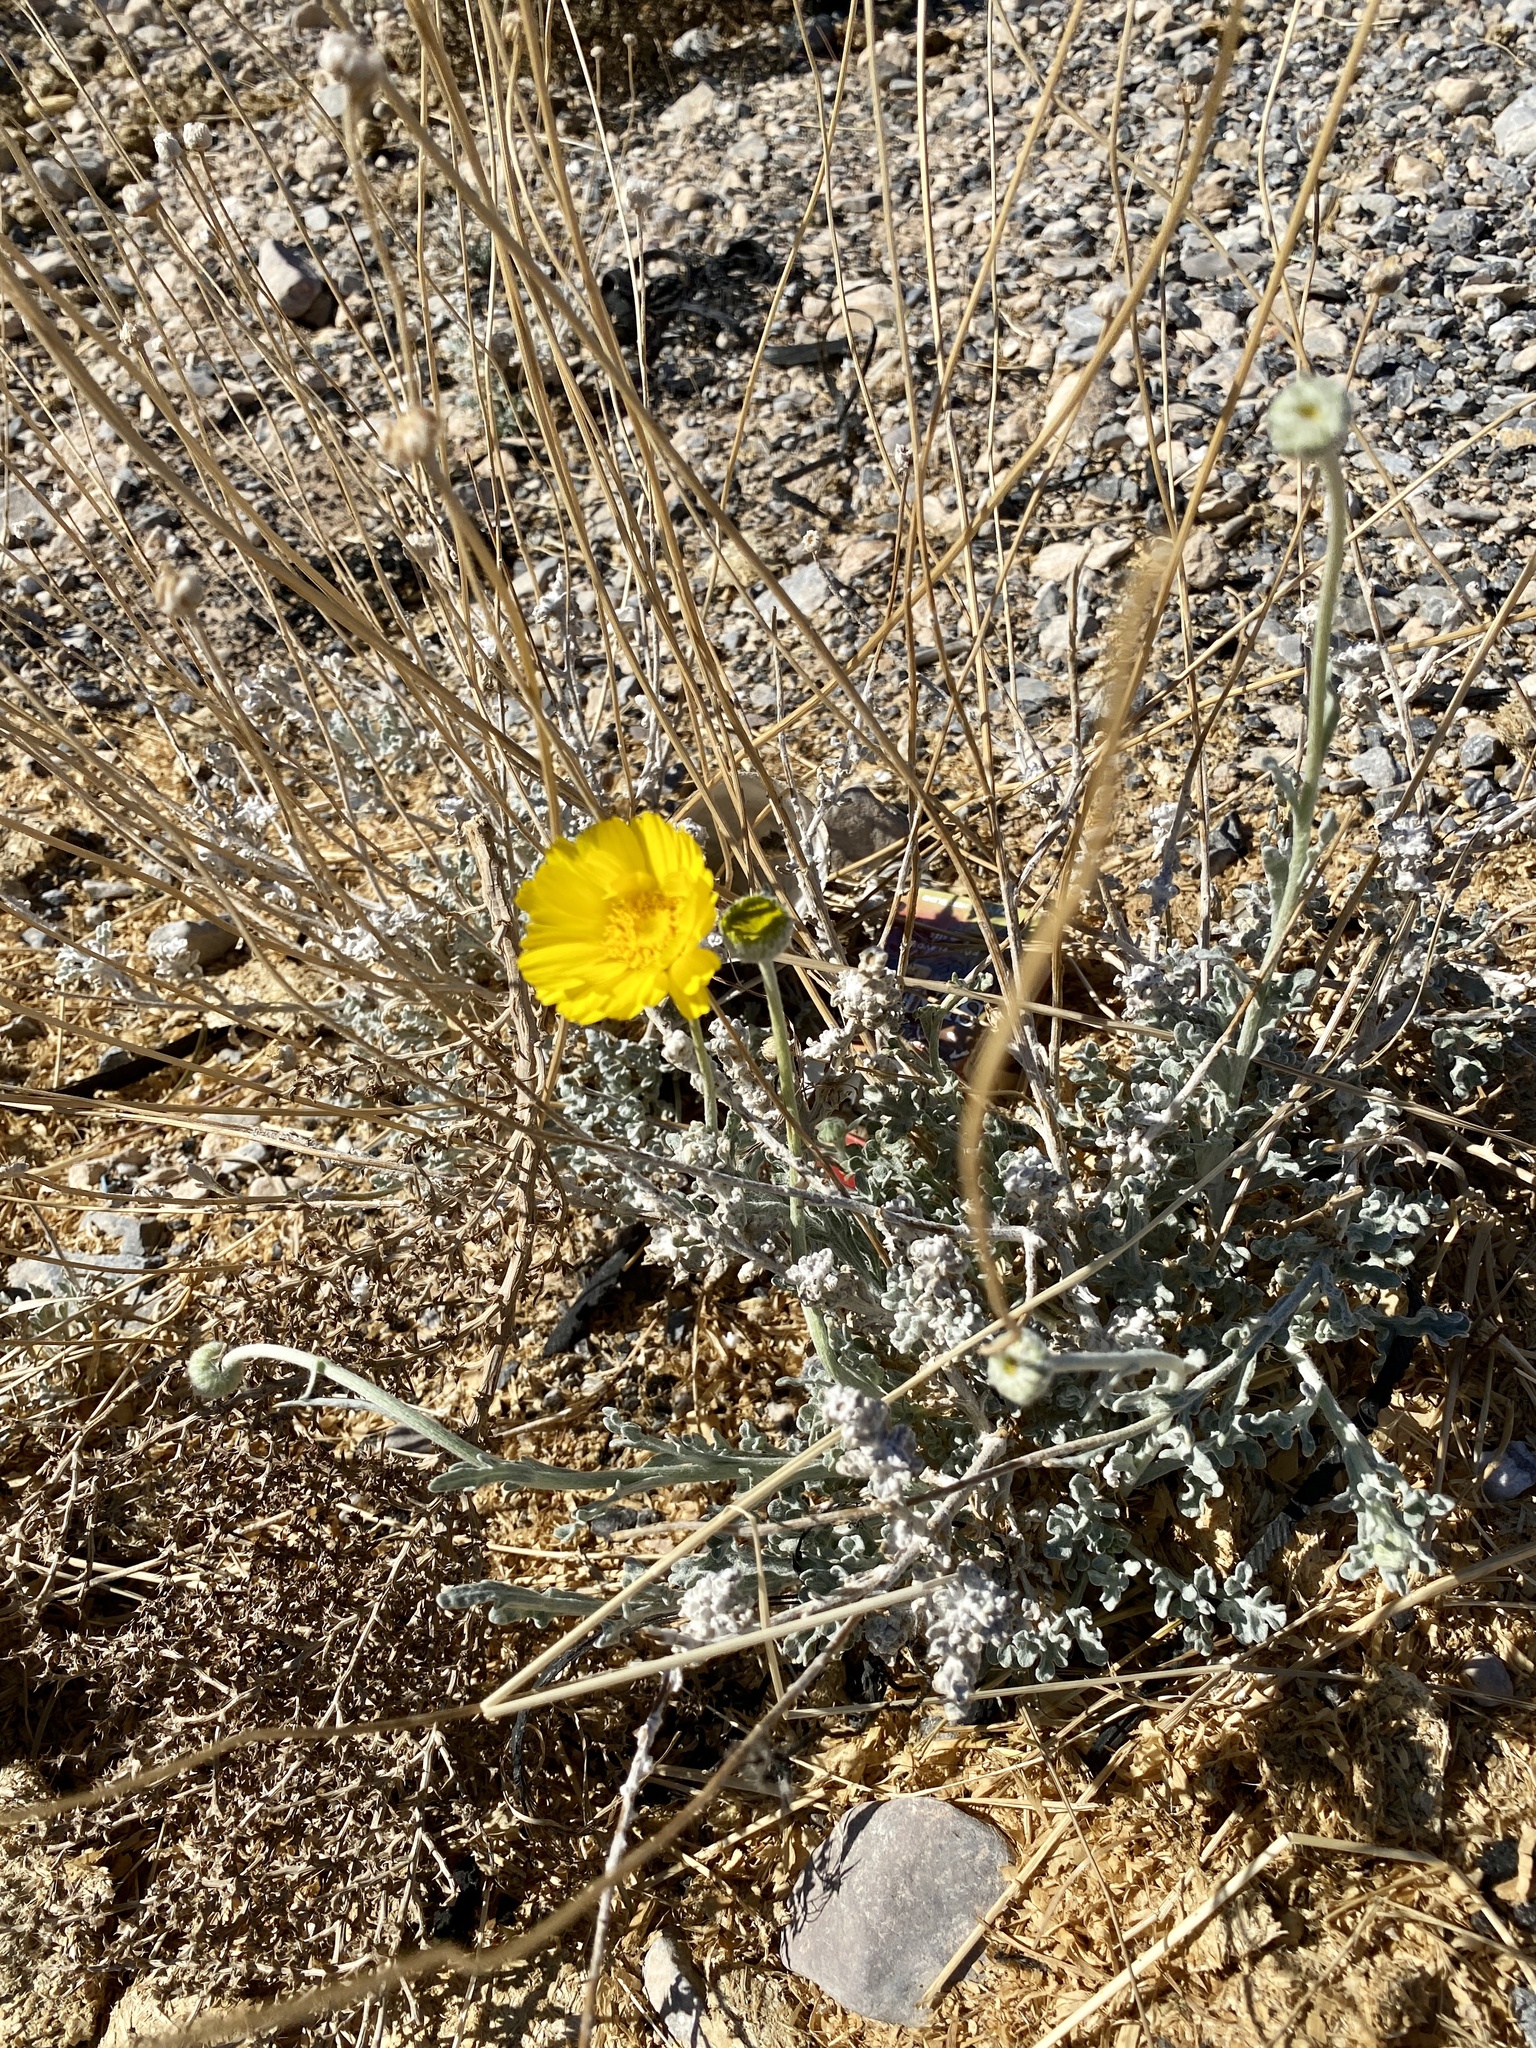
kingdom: Plantae
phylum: Tracheophyta
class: Magnoliopsida
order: Asterales
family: Asteraceae
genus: Baileya
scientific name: Baileya multiradiata
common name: Desert-marigold
